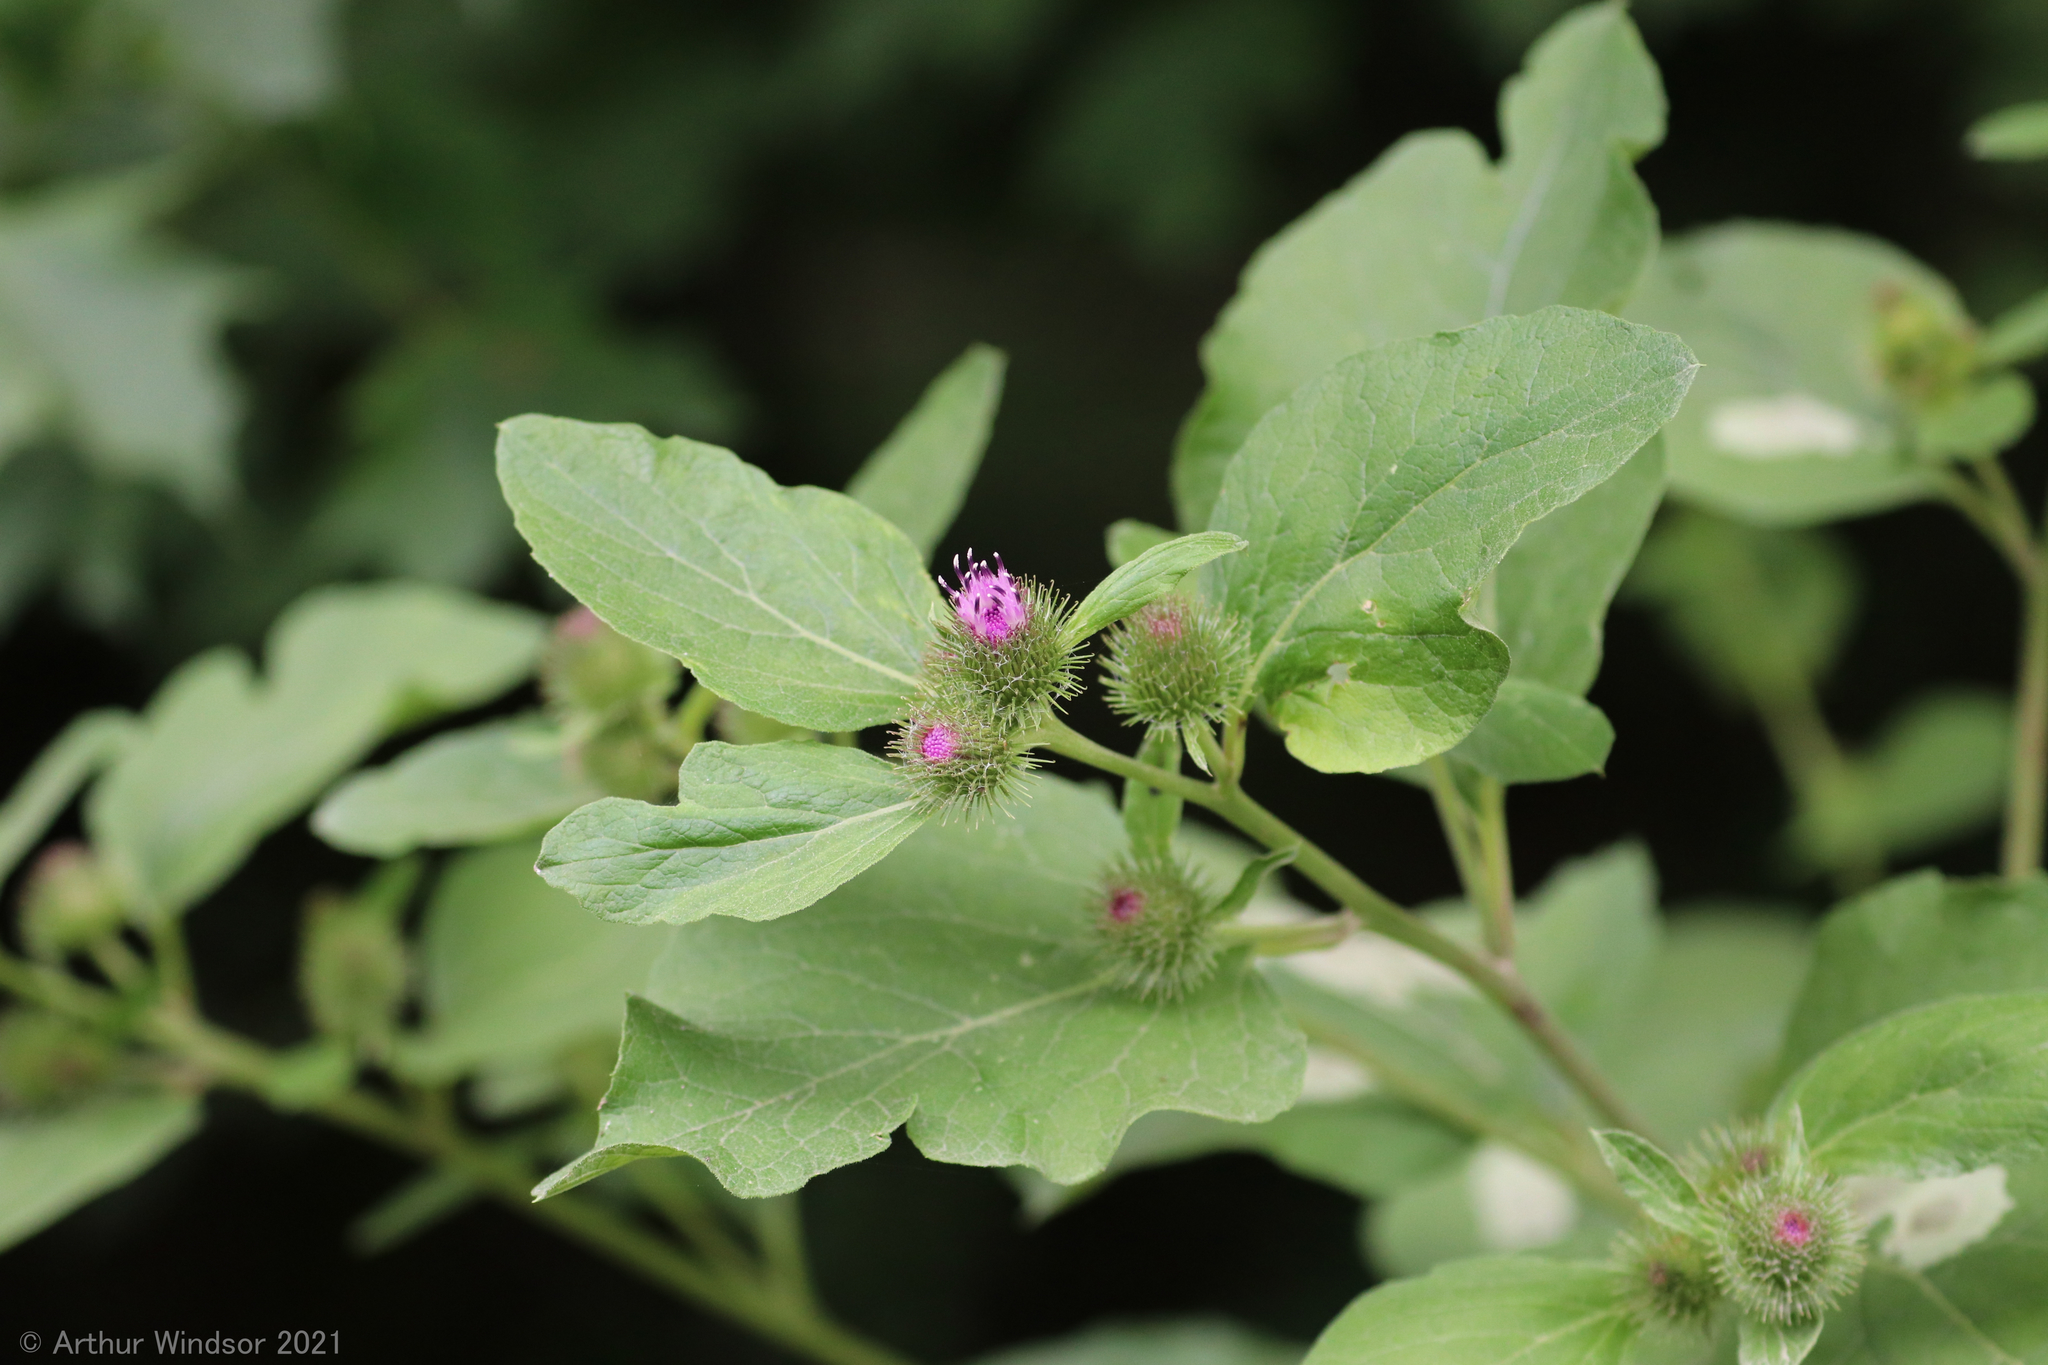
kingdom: Plantae
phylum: Tracheophyta
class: Magnoliopsida
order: Asterales
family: Asteraceae
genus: Arctium
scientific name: Arctium minus
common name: Lesser burdock
